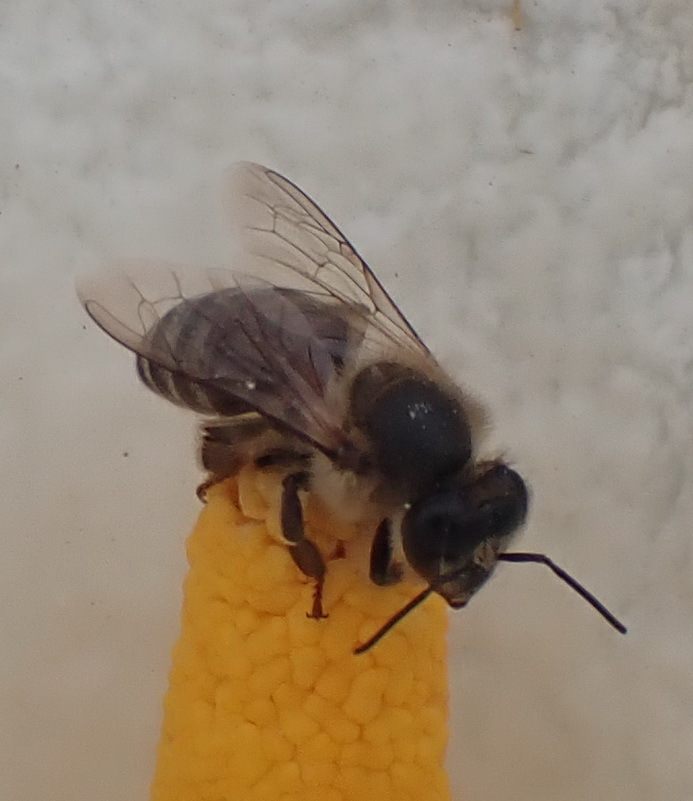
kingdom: Animalia
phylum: Arthropoda
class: Insecta
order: Hymenoptera
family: Apidae
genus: Apis
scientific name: Apis mellifera
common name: Honey bee
